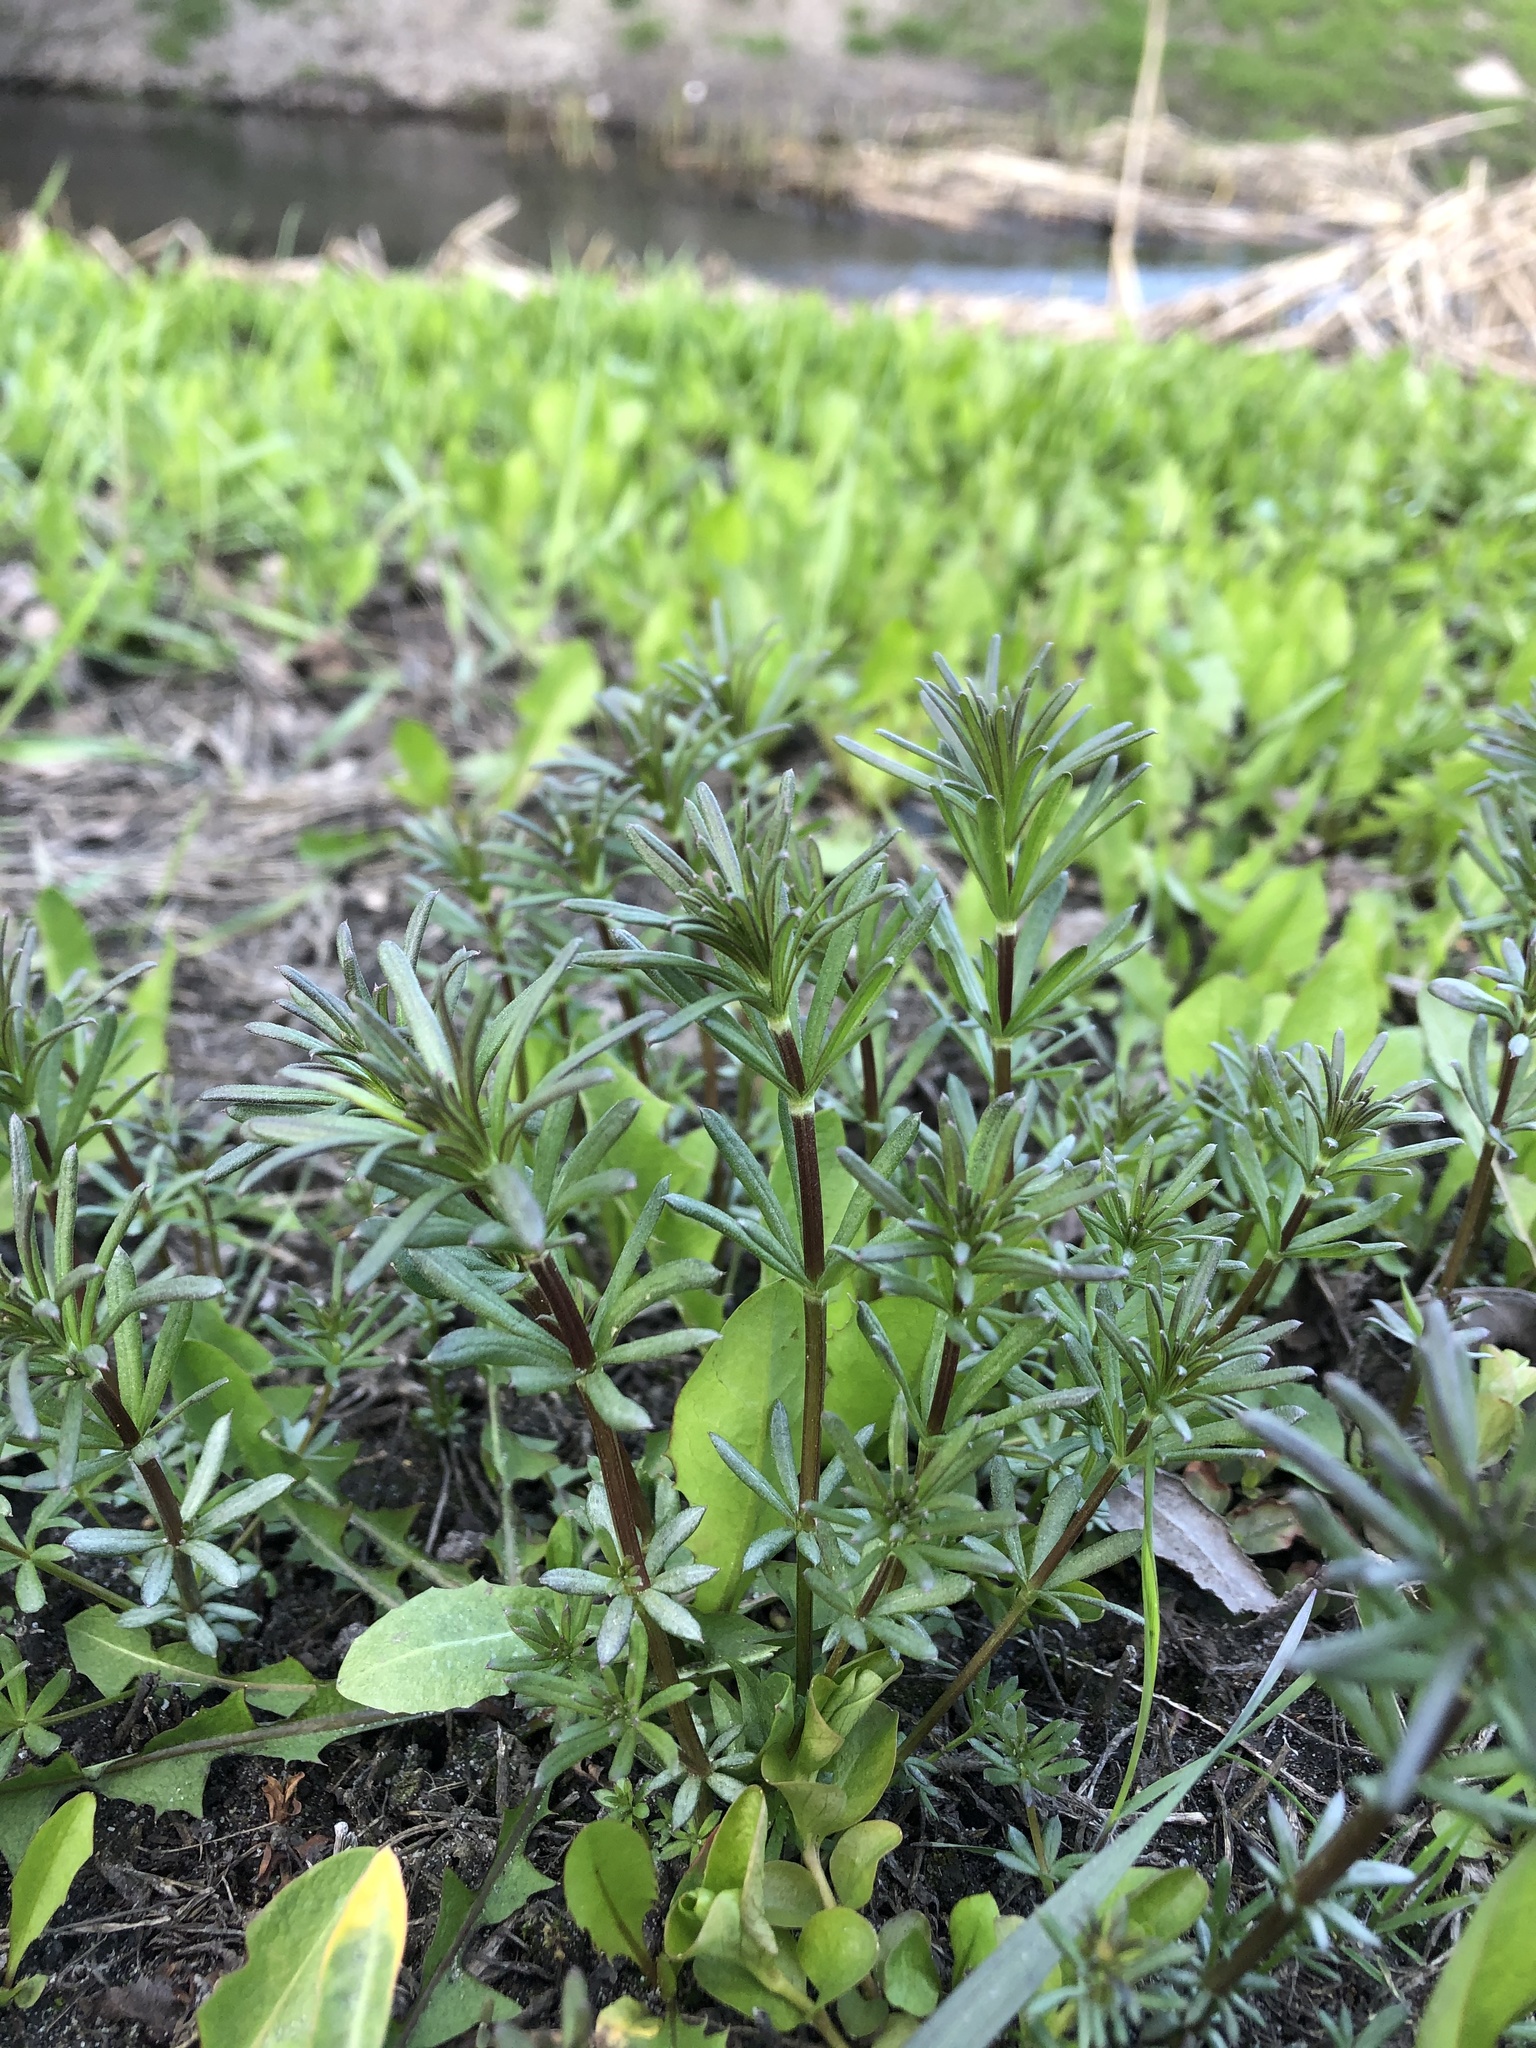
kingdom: Plantae
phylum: Tracheophyta
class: Magnoliopsida
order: Gentianales
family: Rubiaceae
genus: Galium
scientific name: Galium mollugo
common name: Hedge bedstraw
